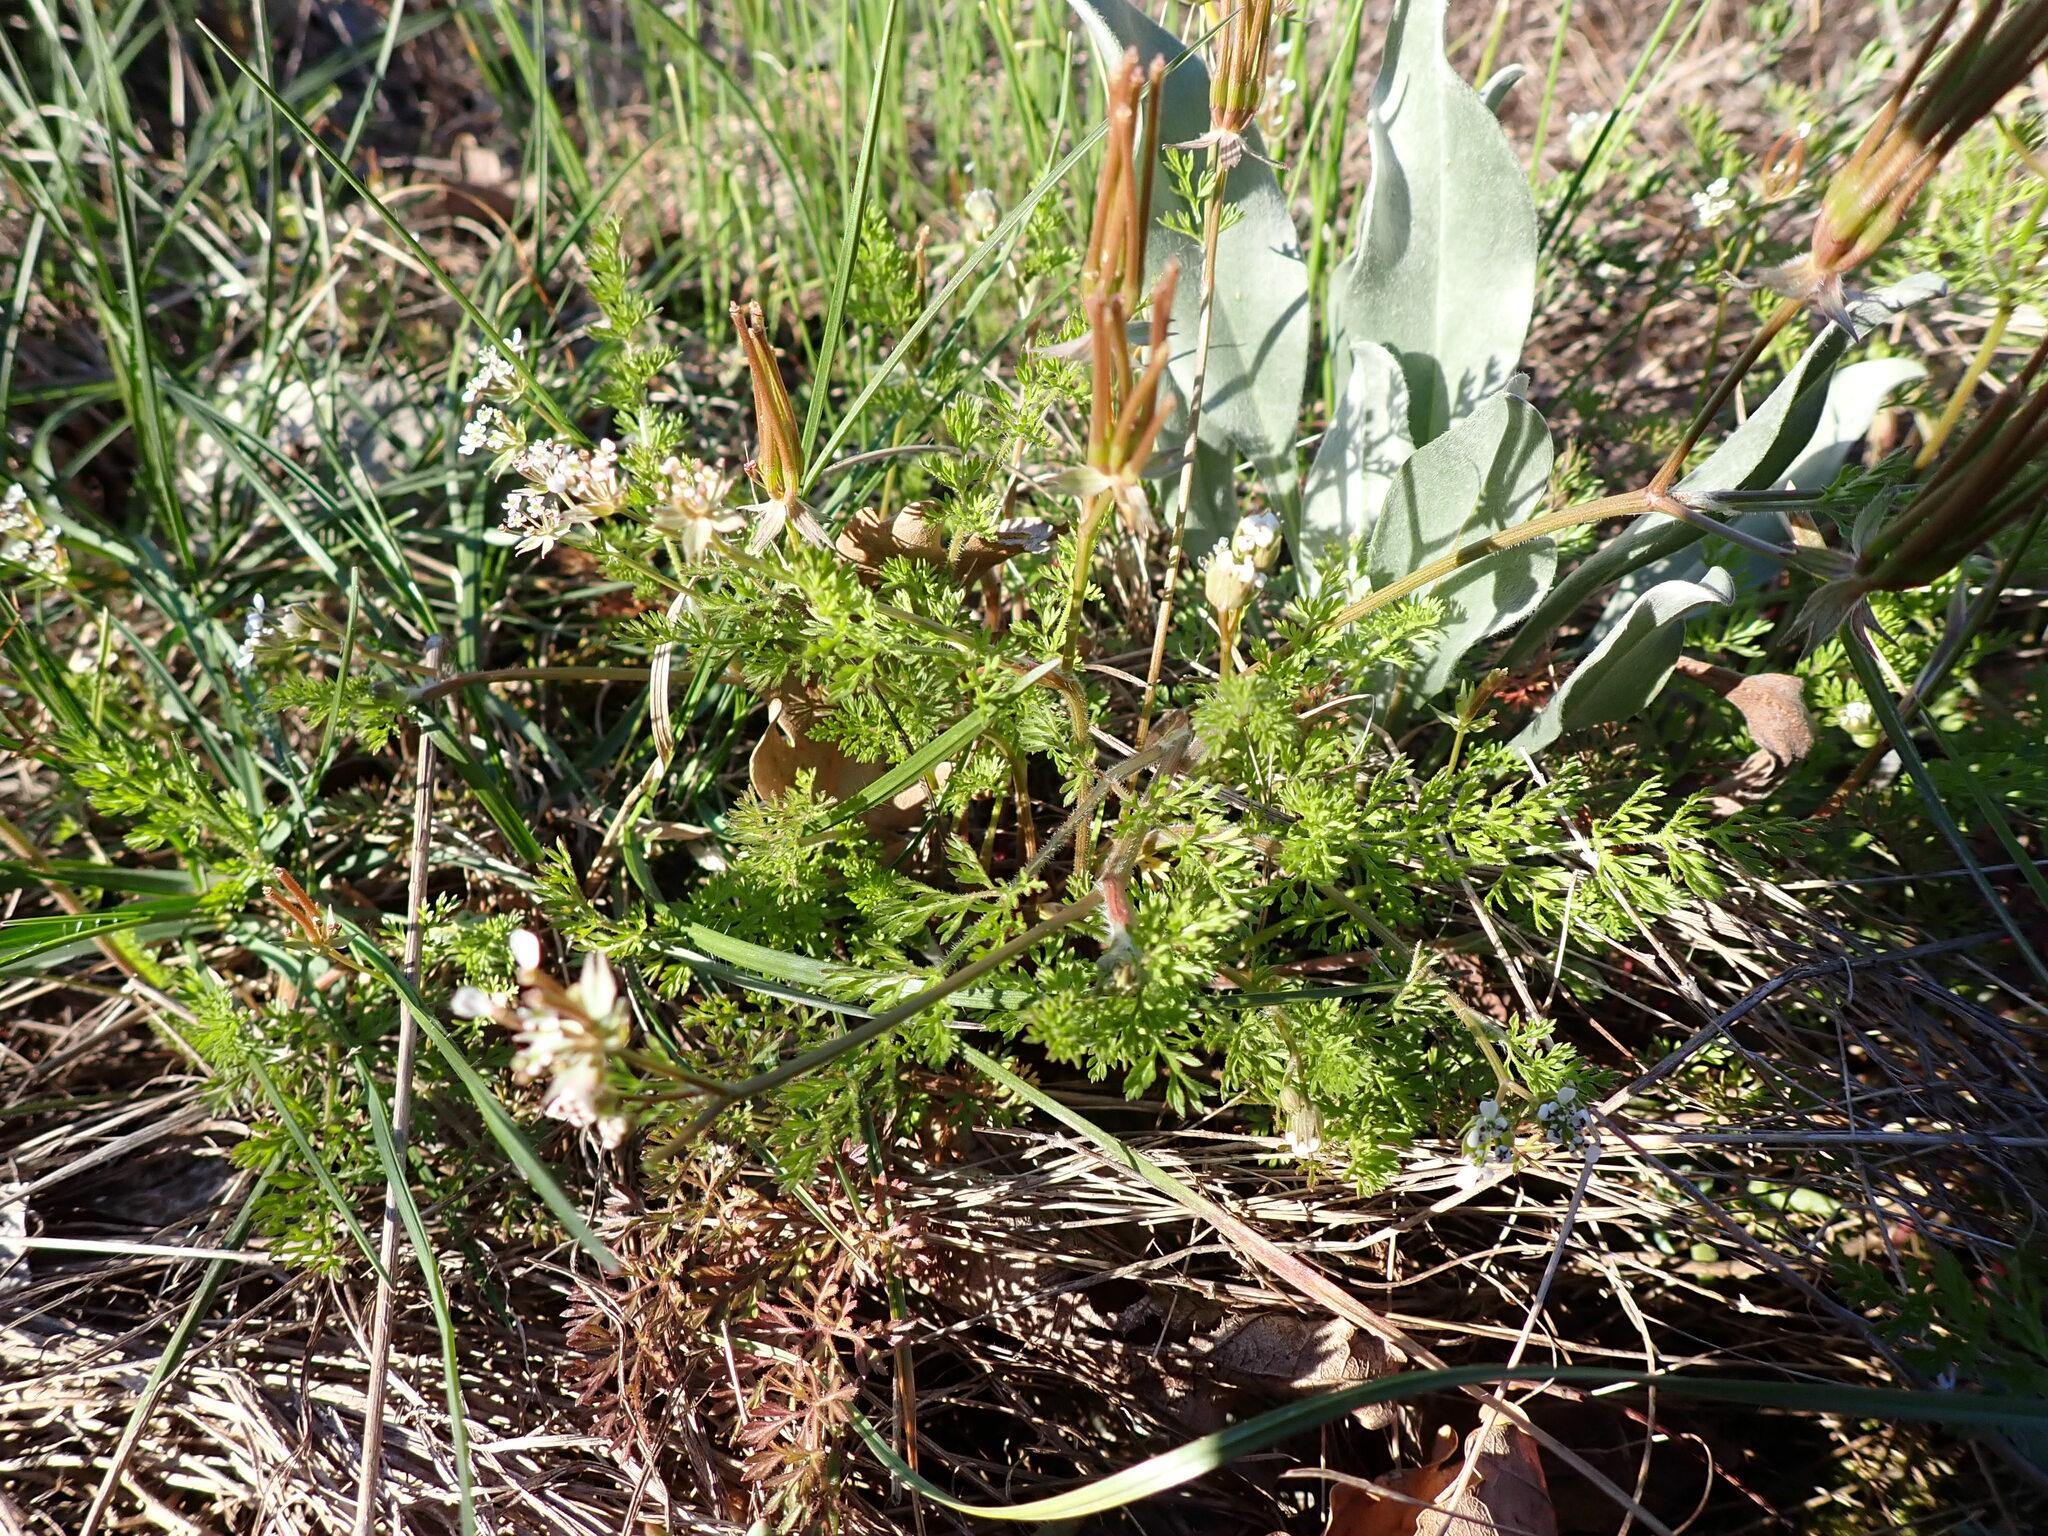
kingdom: Plantae
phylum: Tracheophyta
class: Magnoliopsida
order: Apiales
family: Apiaceae
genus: Scandix
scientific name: Scandix pecten-veneris
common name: Shepherd's-needle
